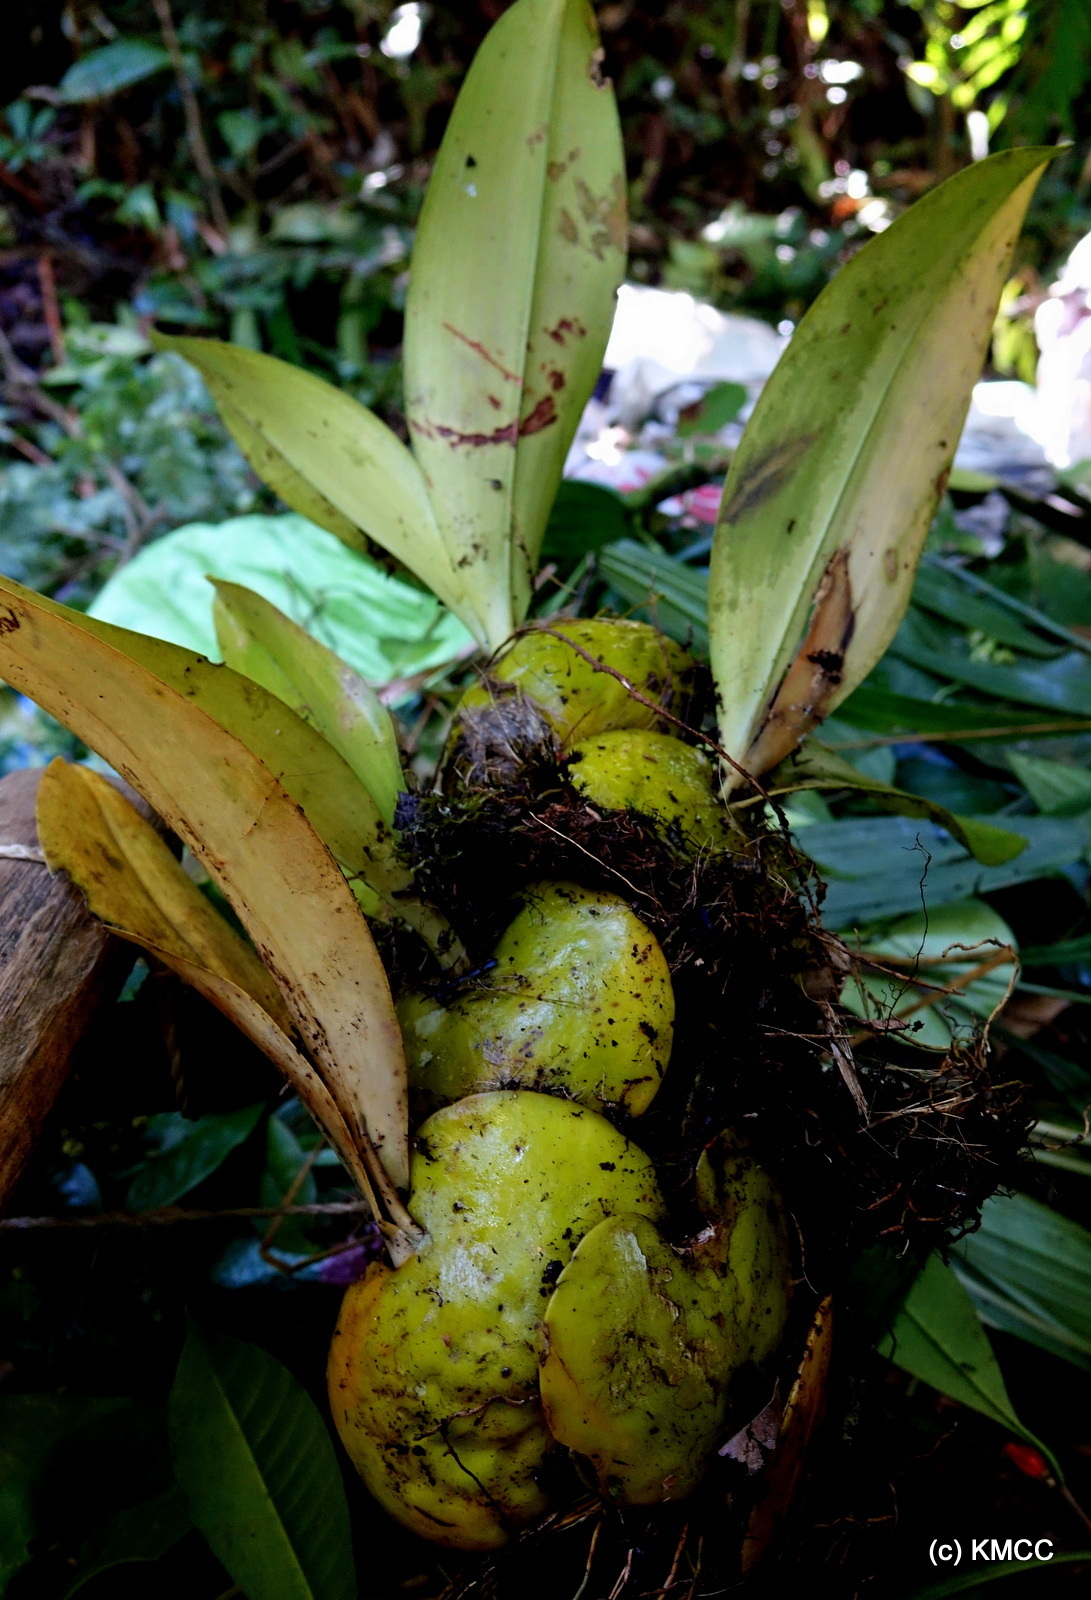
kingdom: Plantae
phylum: Tracheophyta
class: Liliopsida
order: Asparagales
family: Orchidaceae
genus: Bulbophyllum
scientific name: Bulbophyllum hamelinii
